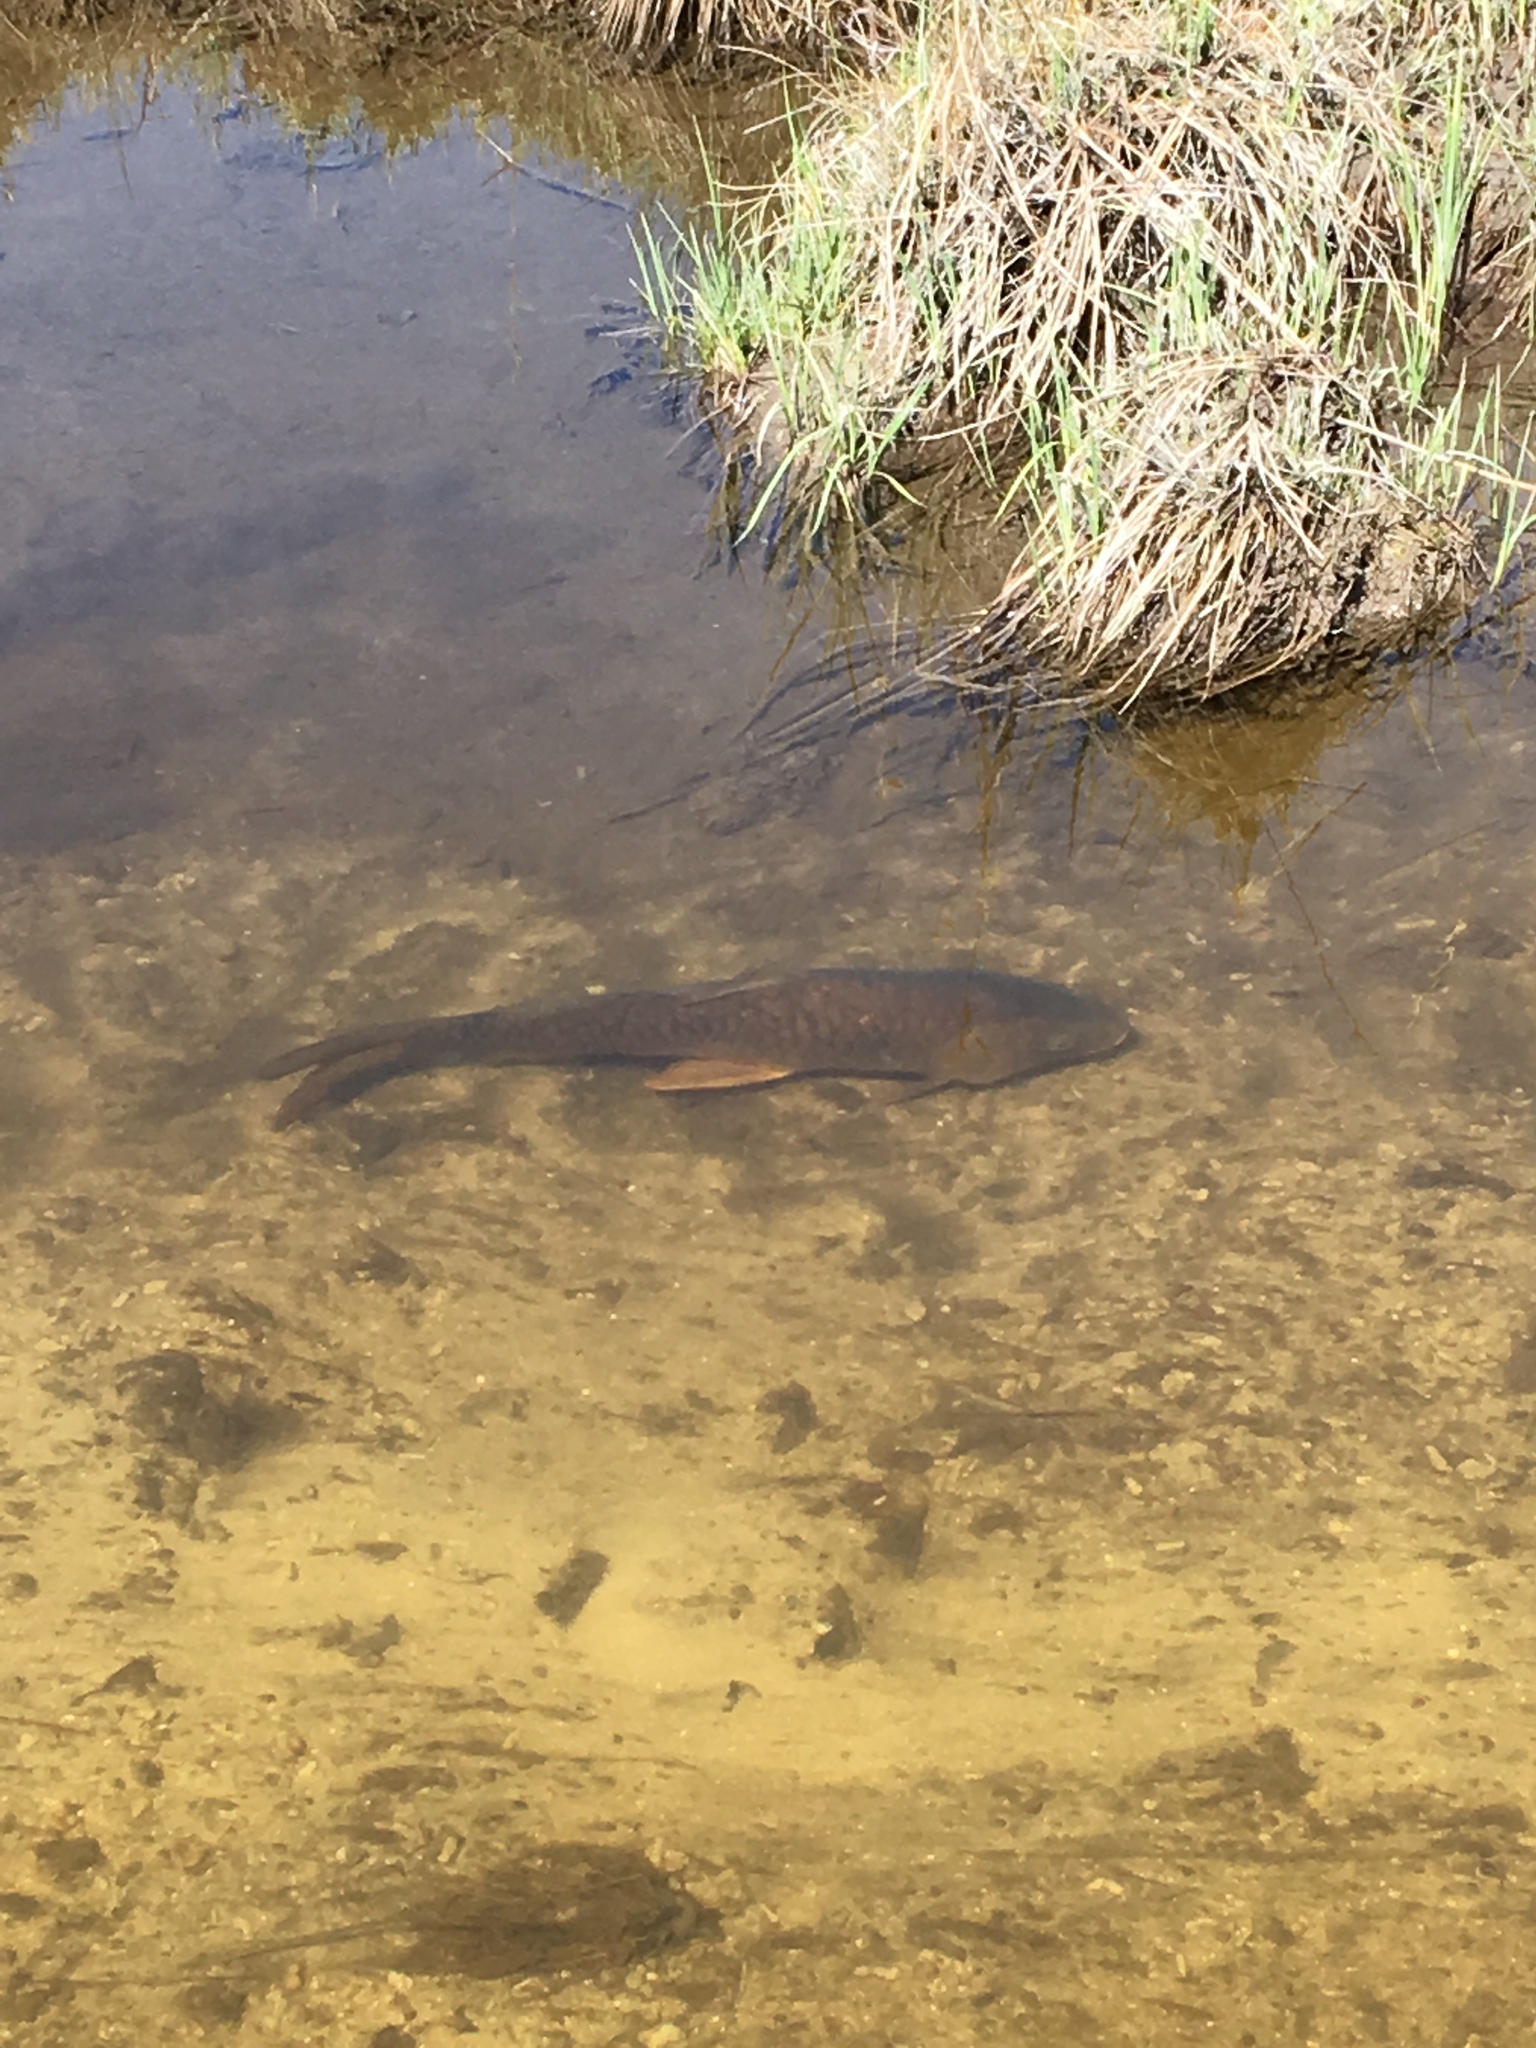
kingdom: Animalia
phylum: Chordata
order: Cypriniformes
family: Cyprinidae
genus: Cyprinus
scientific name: Cyprinus carpio
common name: Common carp
